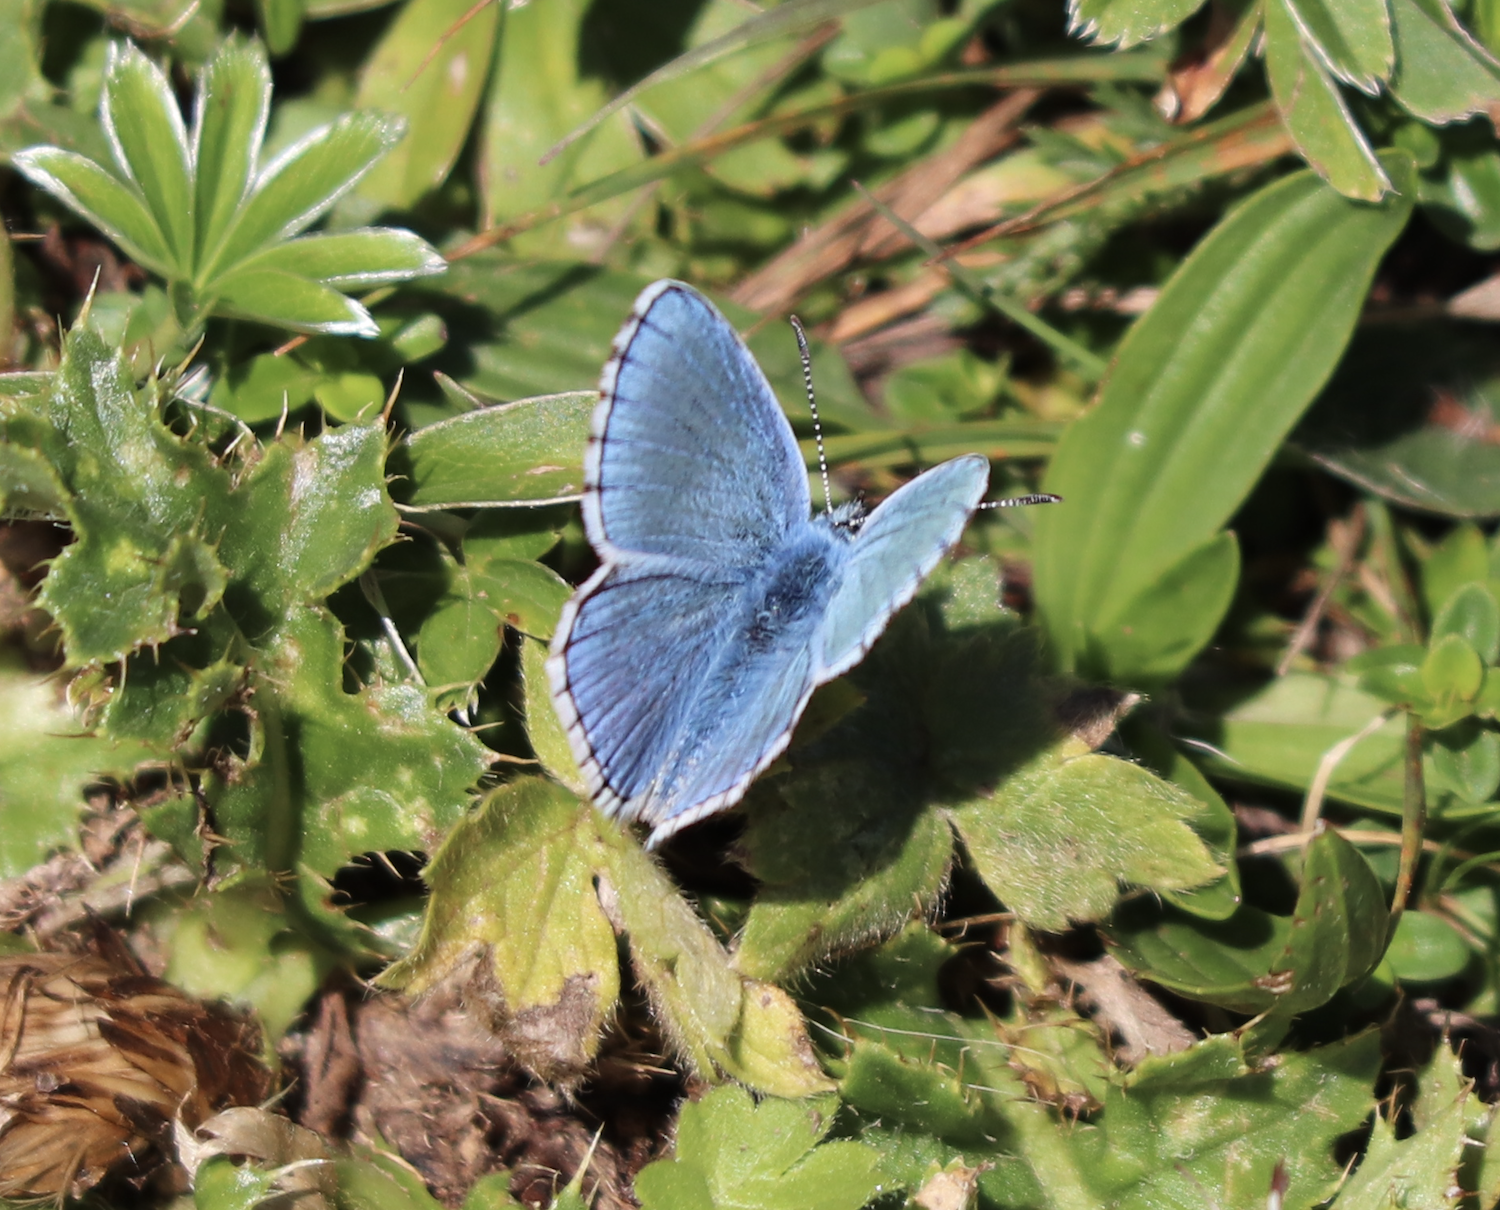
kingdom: Animalia
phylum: Arthropoda
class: Insecta
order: Lepidoptera
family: Lycaenidae
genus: Lysandra
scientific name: Lysandra bellargus
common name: Adonis blue
